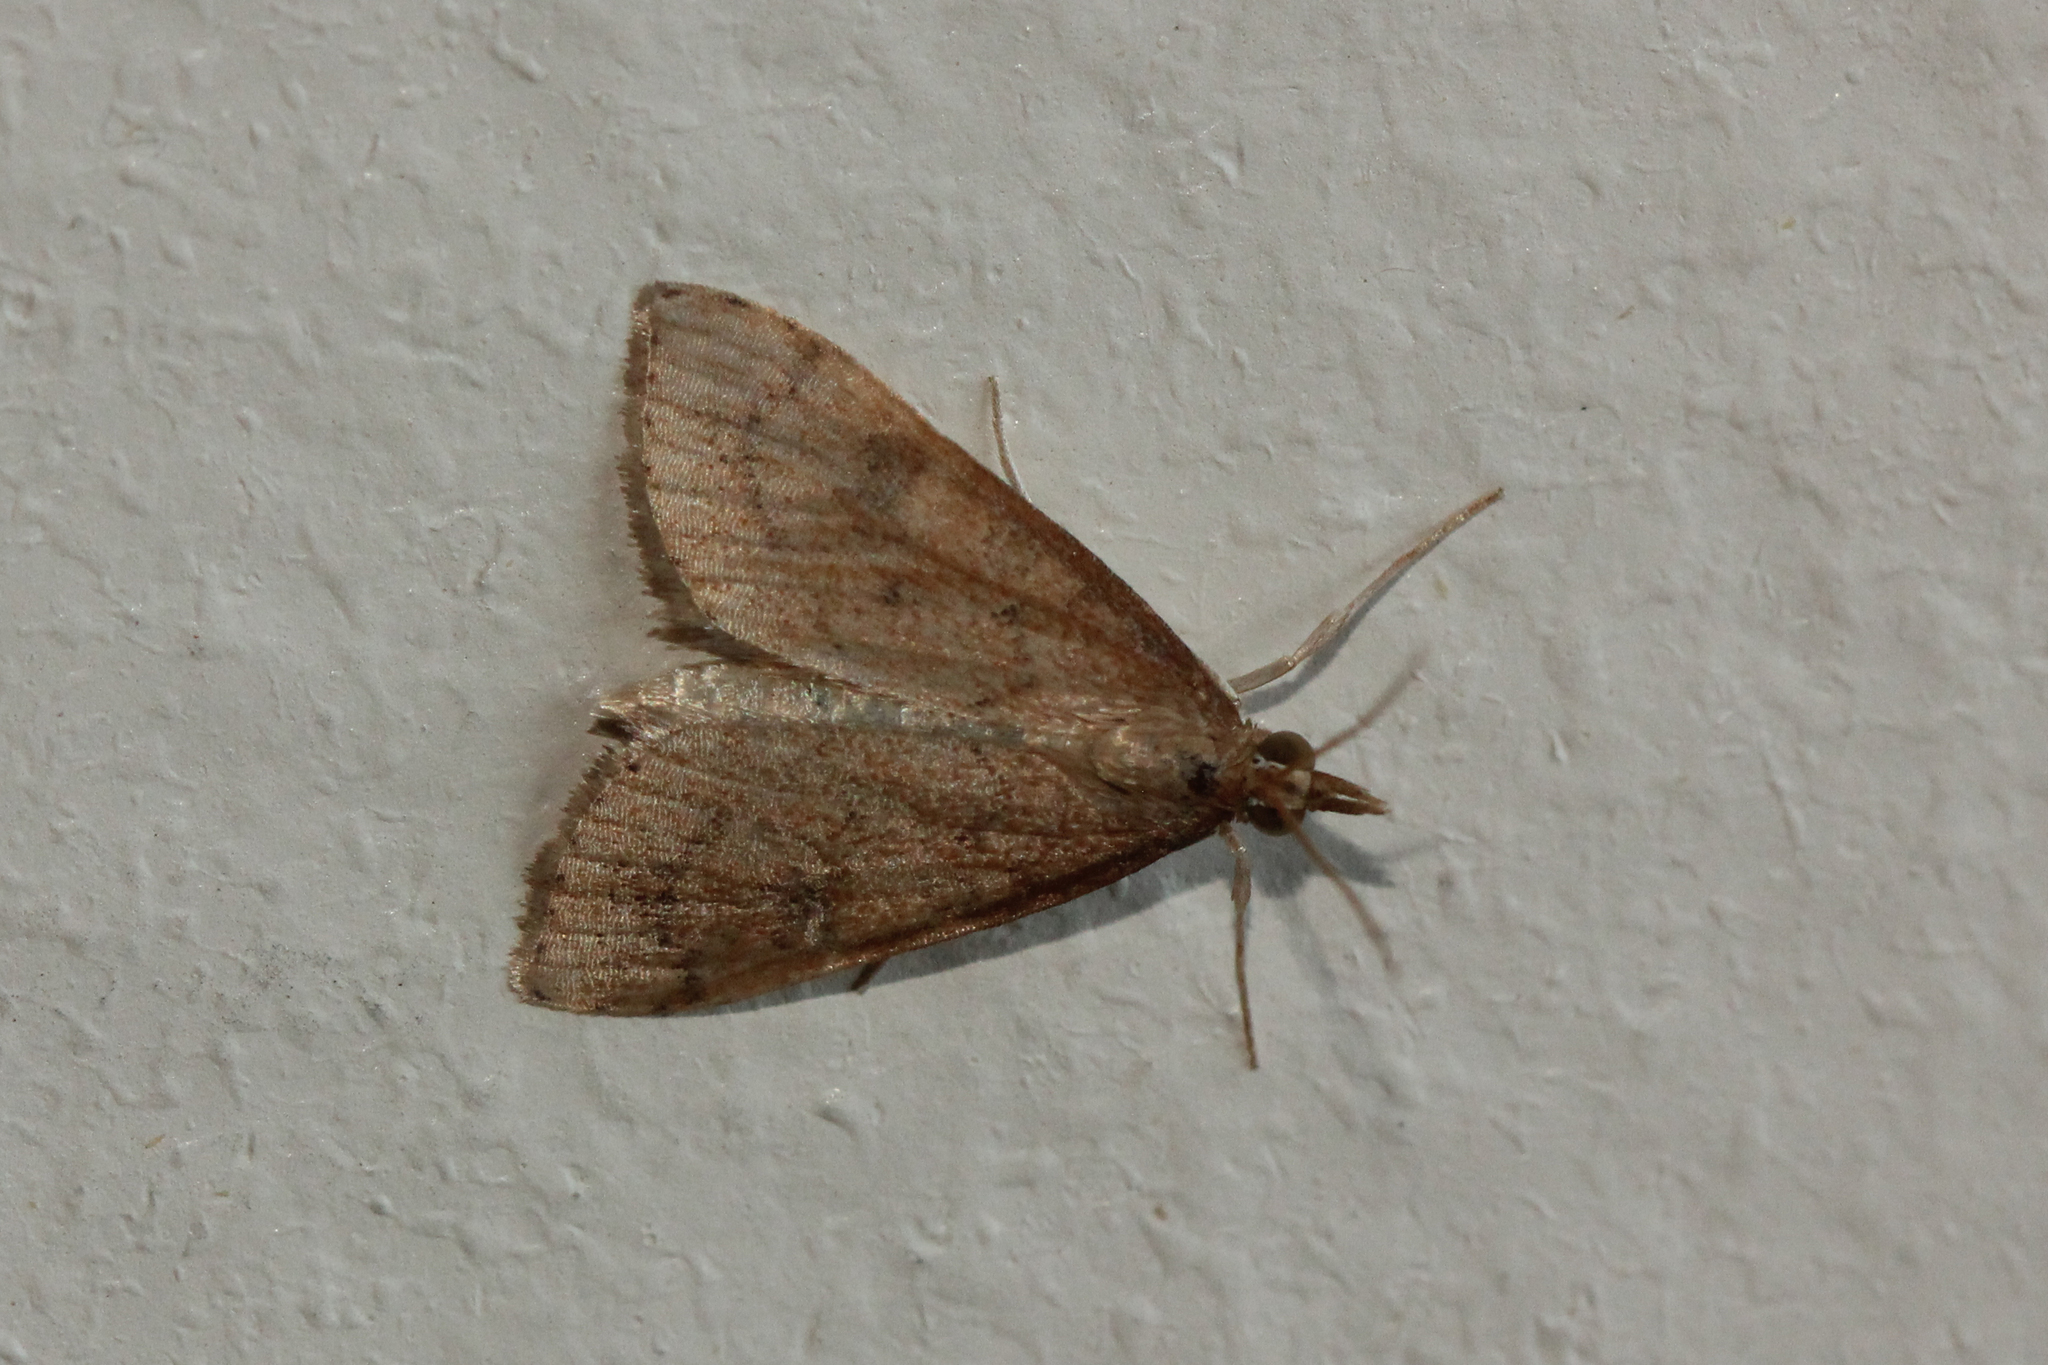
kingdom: Animalia
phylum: Arthropoda
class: Insecta
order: Lepidoptera
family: Crambidae
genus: Udea
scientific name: Udea rubigalis
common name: Celery leaftier moth
